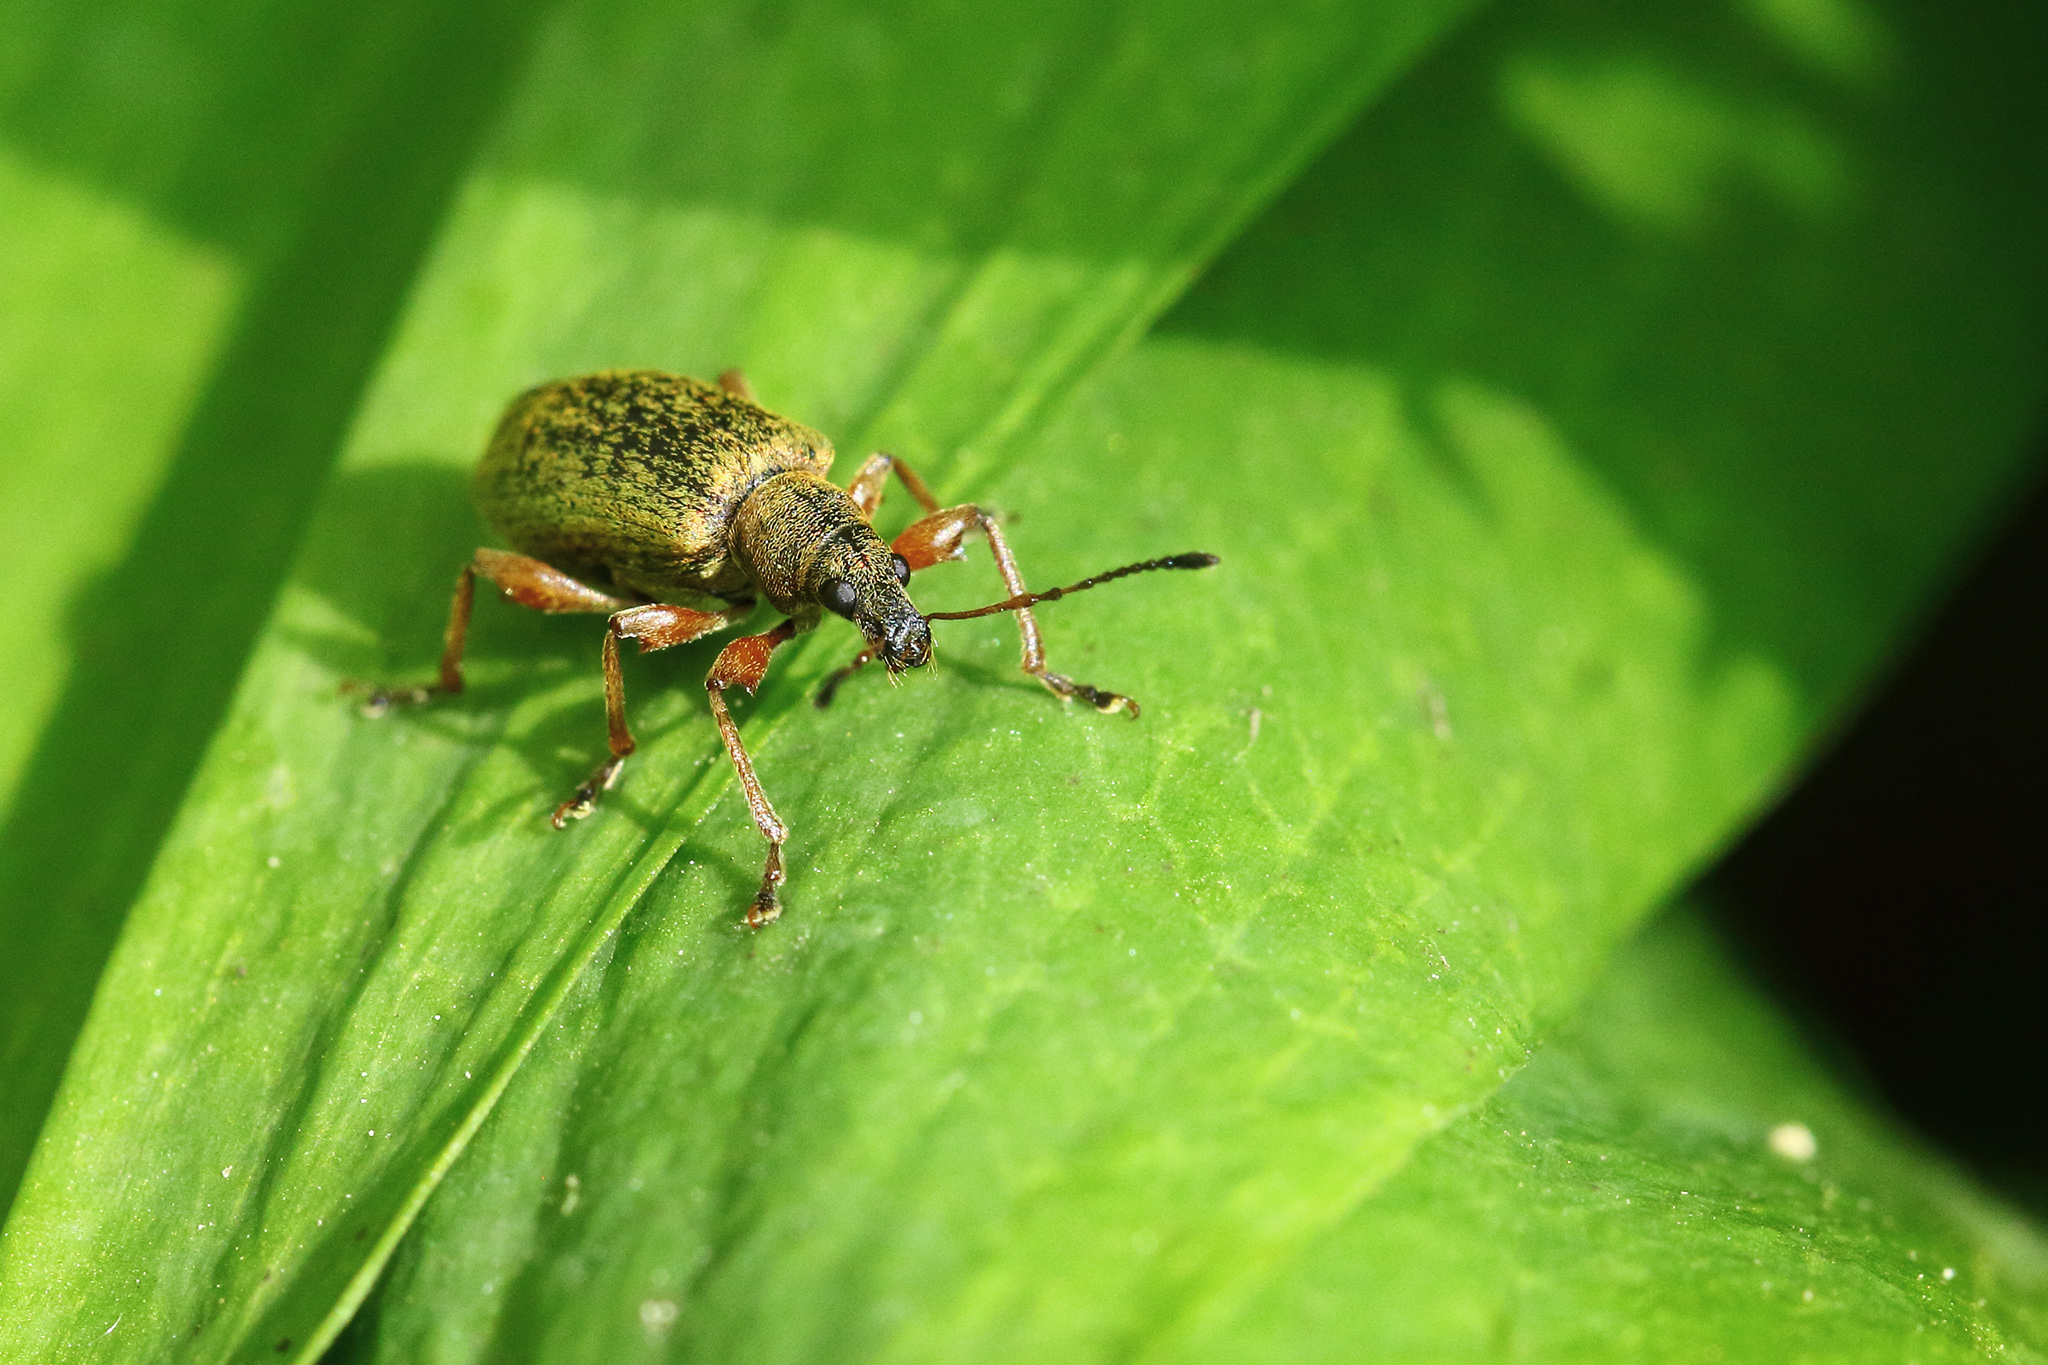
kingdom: Animalia
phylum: Arthropoda
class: Insecta
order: Coleoptera
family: Curculionidae
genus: Phyllobius
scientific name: Phyllobius glaucus
